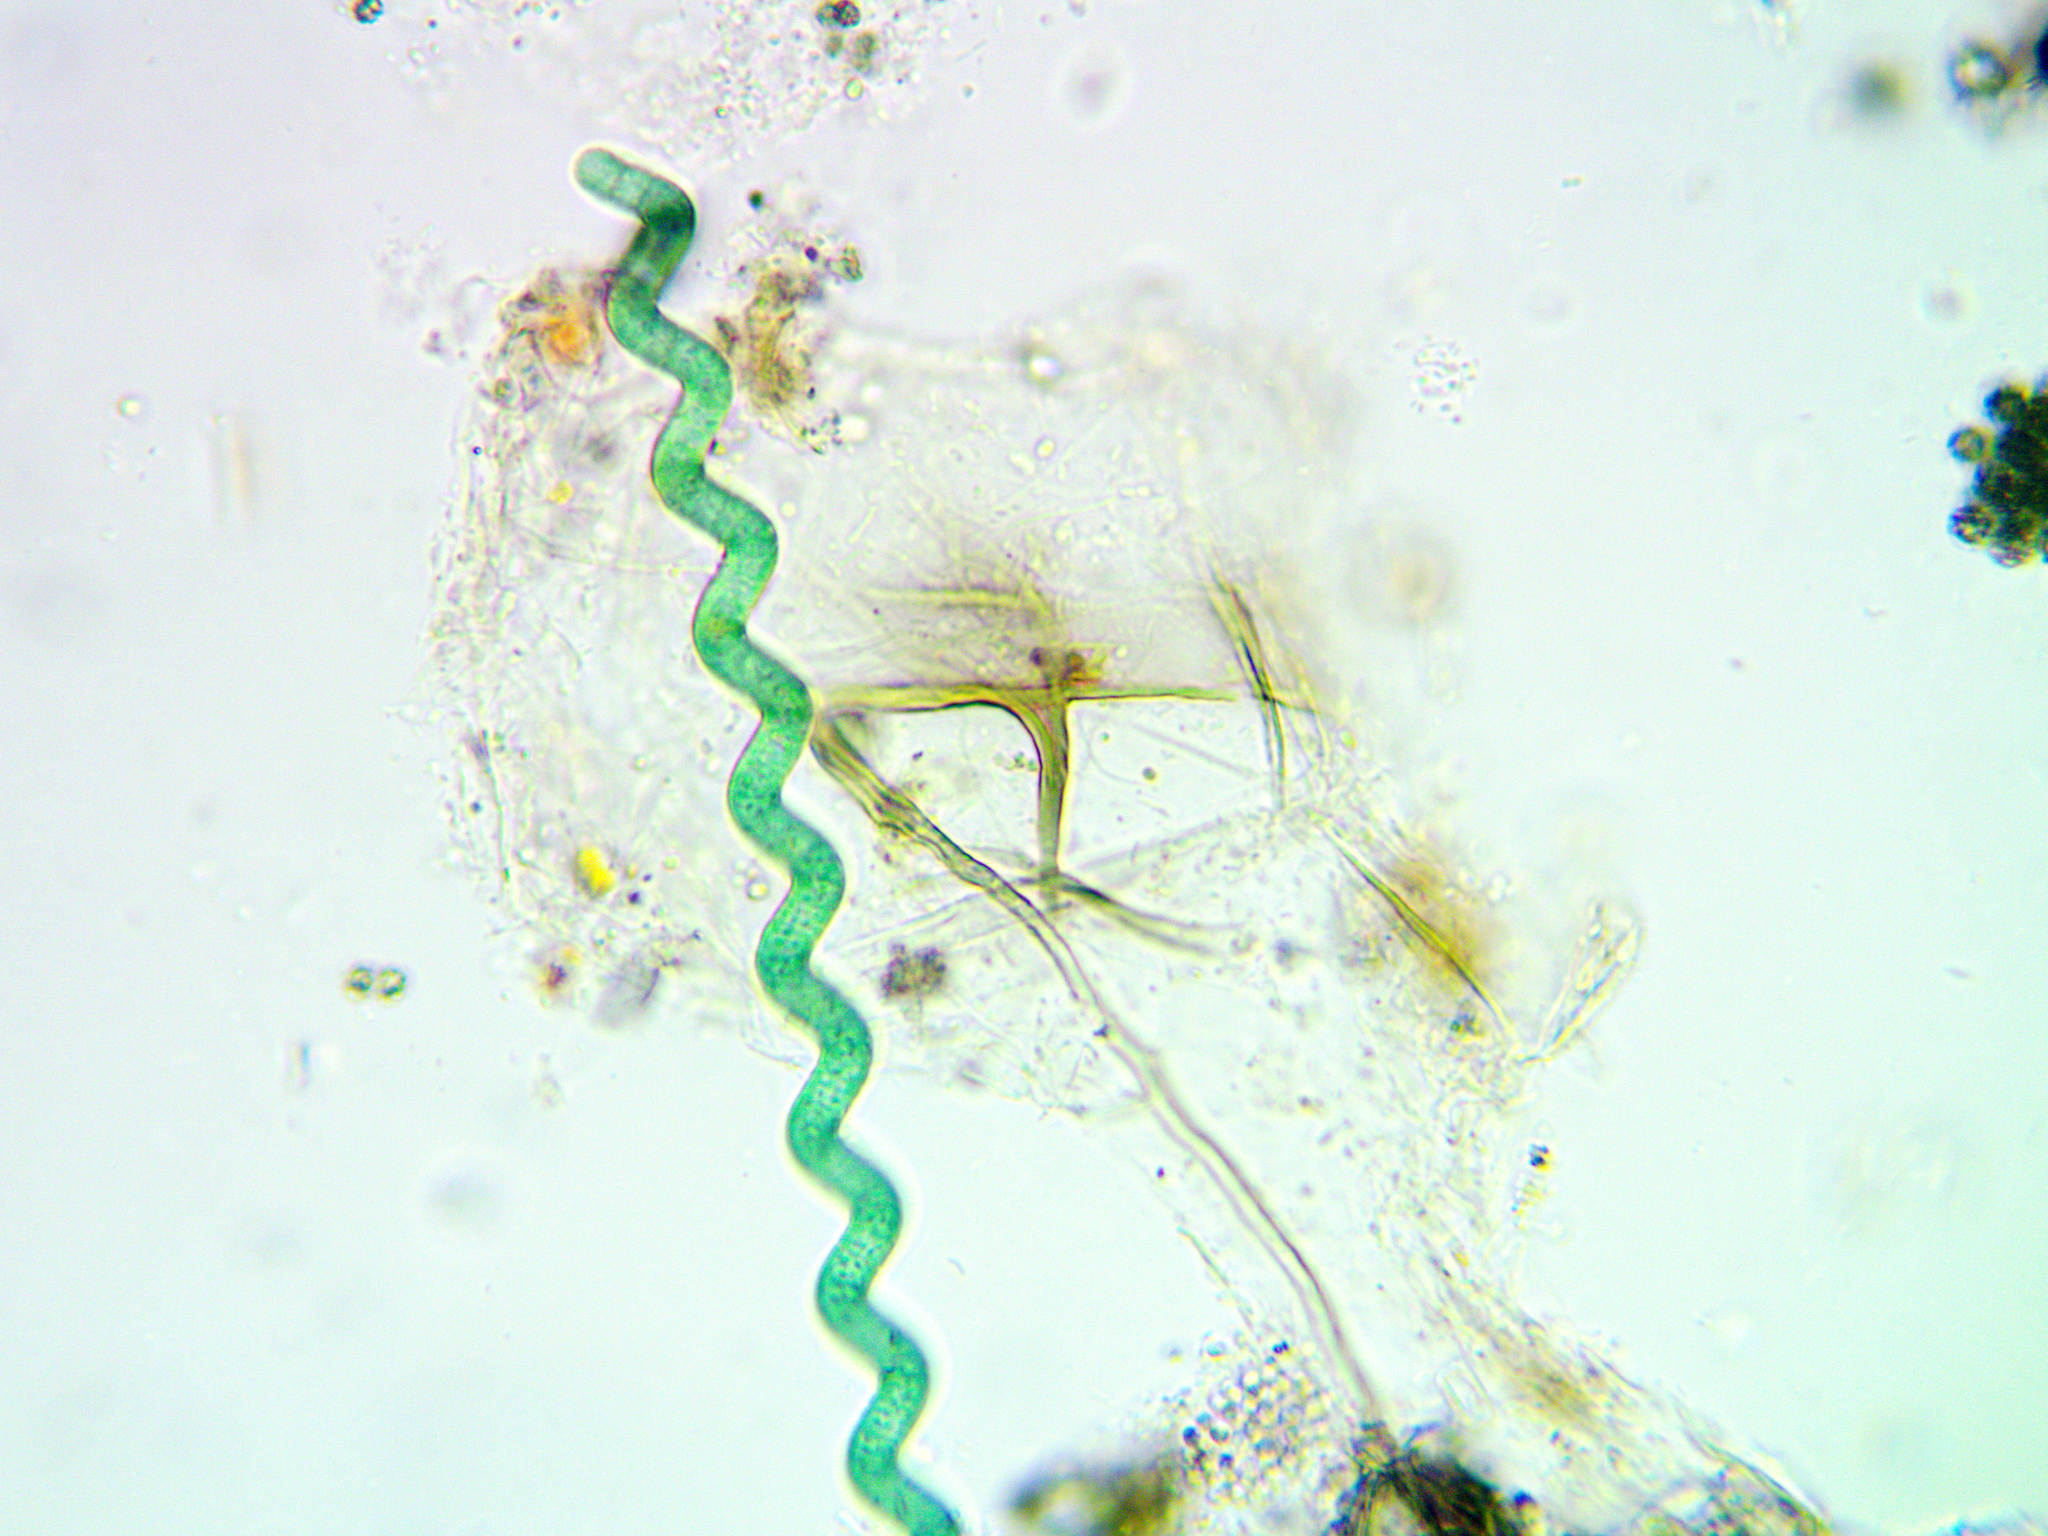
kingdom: Bacteria
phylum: Cyanobacteria
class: Cyanobacteriia
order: Cyanobacteriales
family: Microcoleaceae
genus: Arthrospira
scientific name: Arthrospira jenneri
